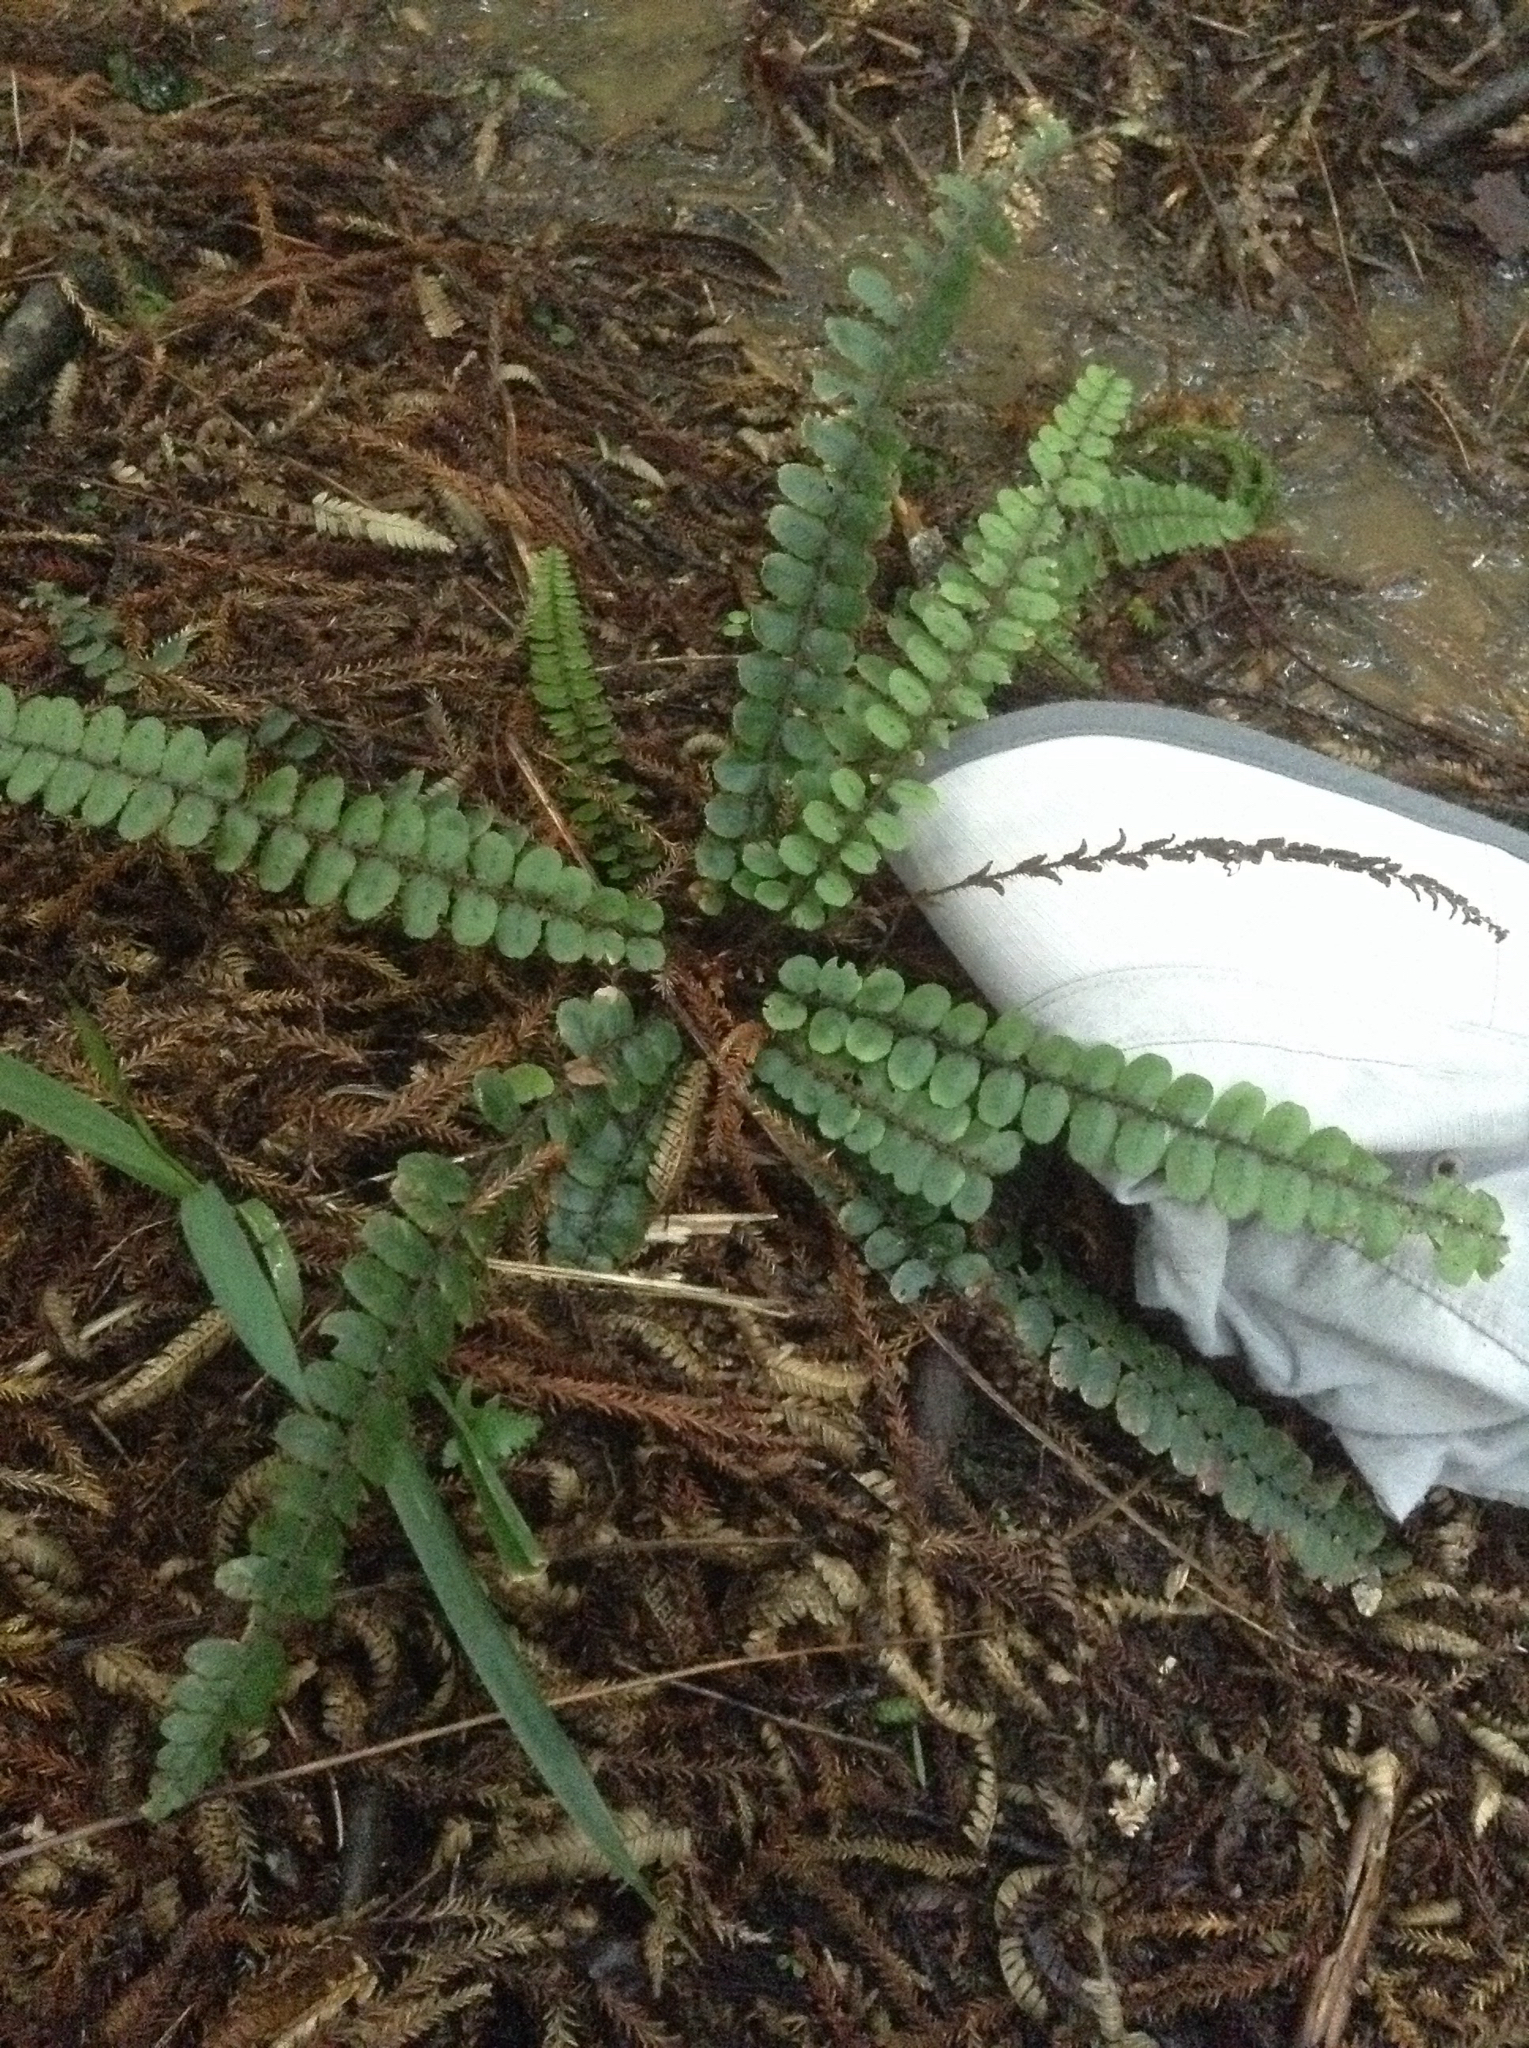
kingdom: Plantae
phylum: Tracheophyta
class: Polypodiopsida
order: Polypodiales
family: Blechnaceae
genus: Cranfillia
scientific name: Cranfillia fluviatilis
